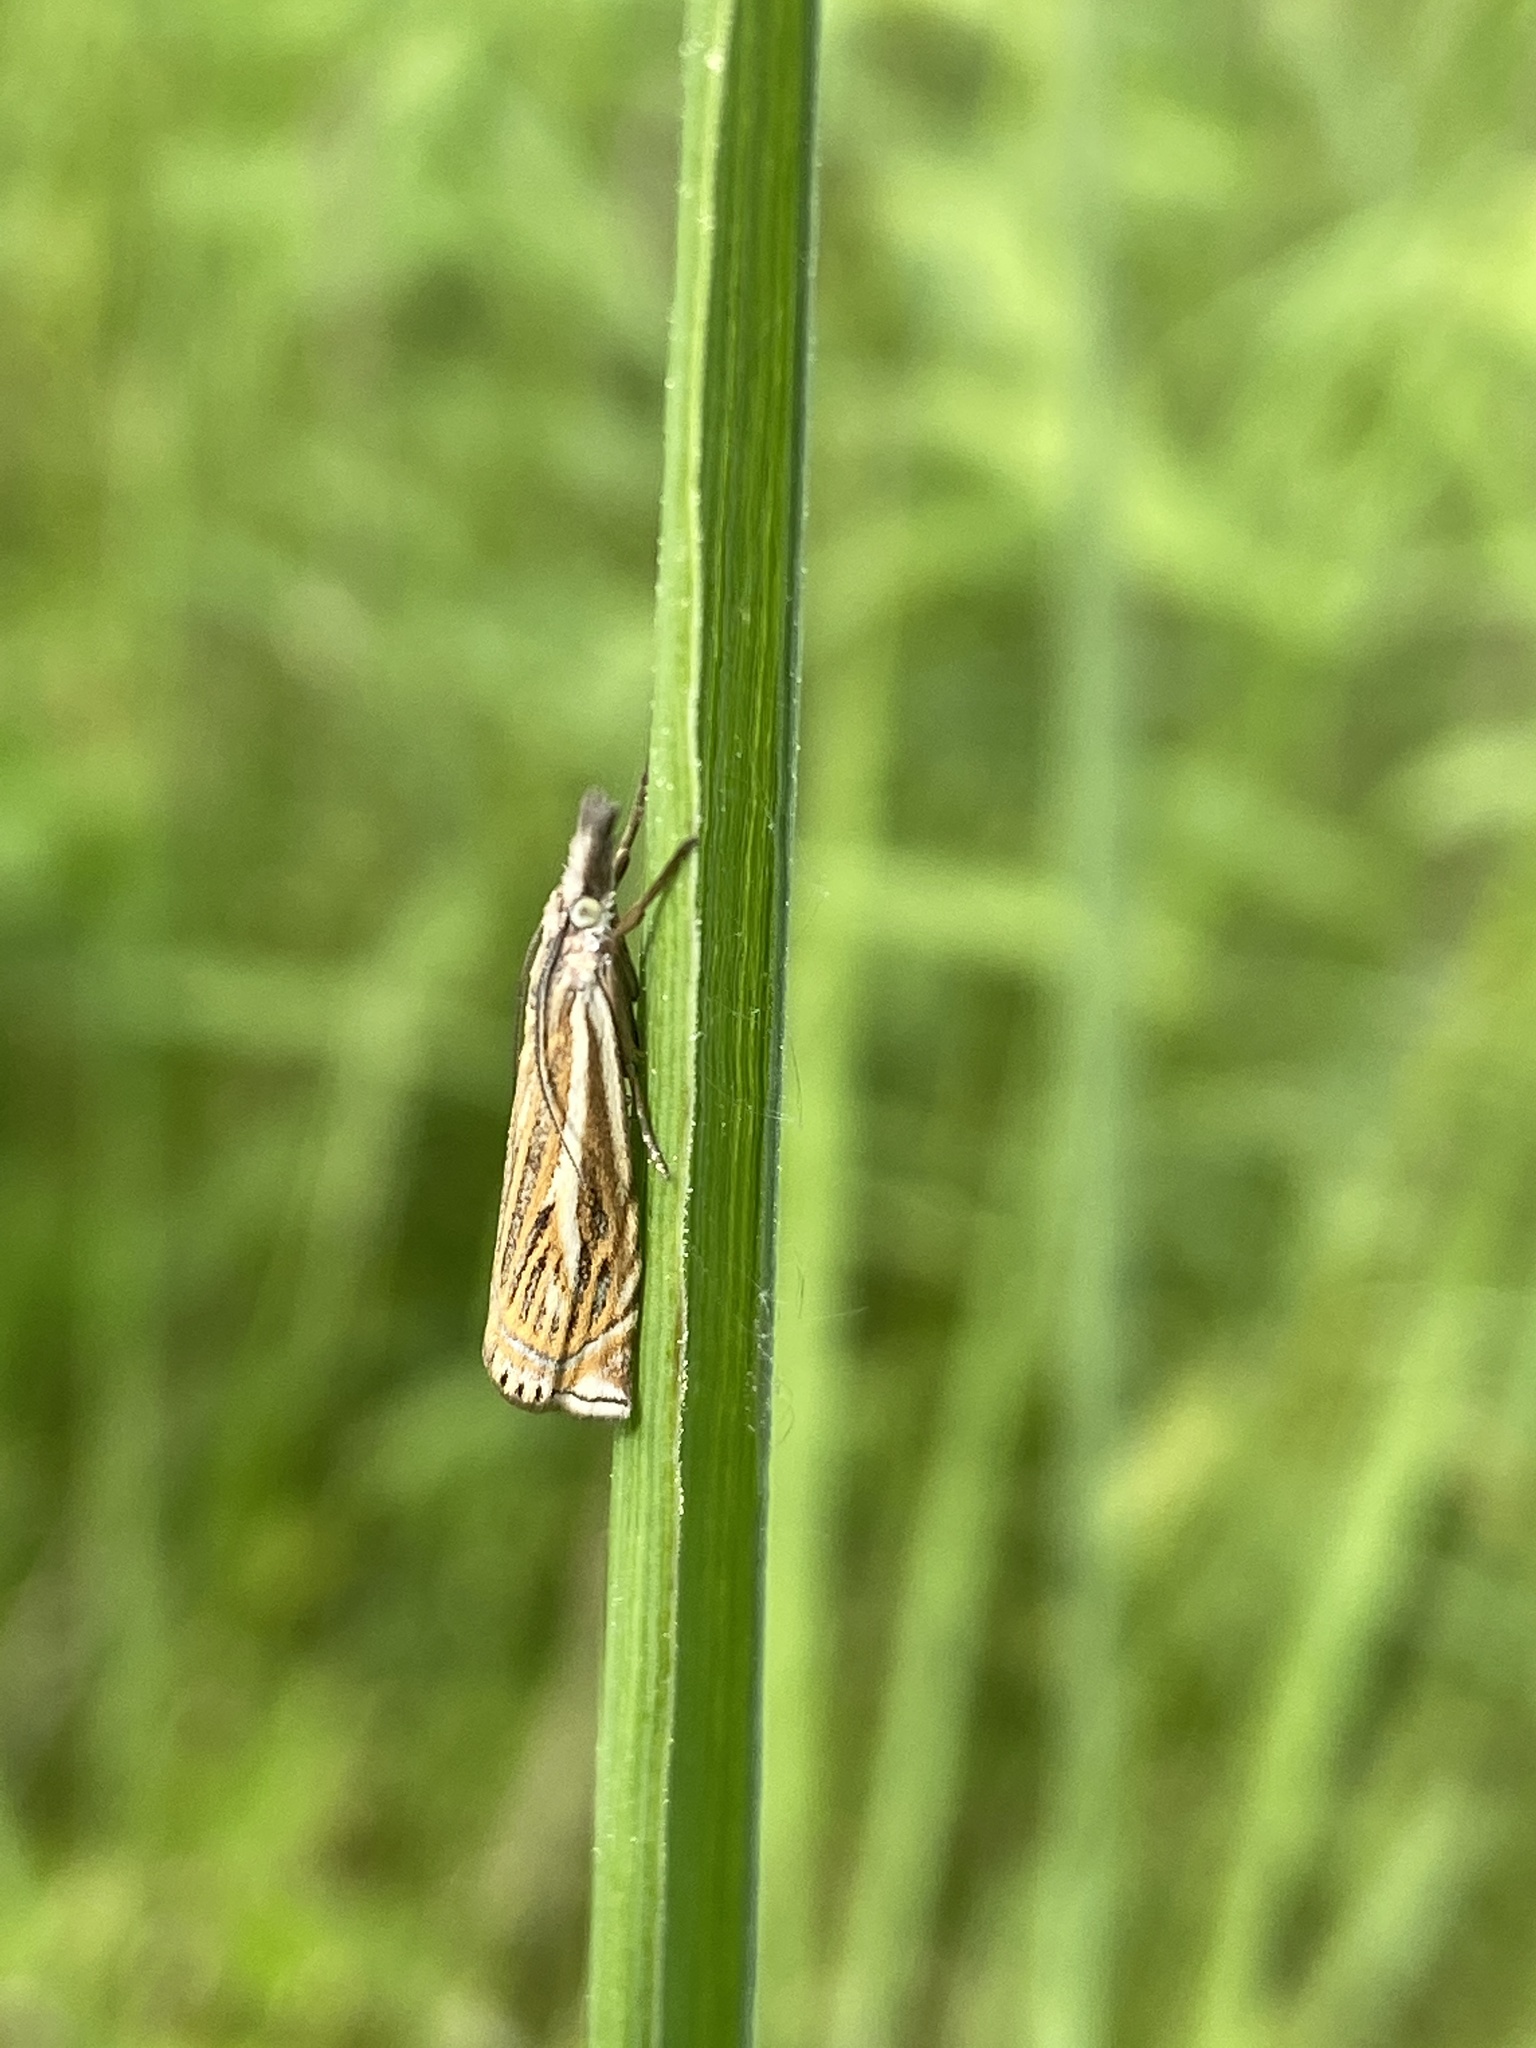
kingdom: Animalia
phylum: Arthropoda
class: Insecta
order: Lepidoptera
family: Crambidae
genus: Crambus
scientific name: Crambus nemorella
